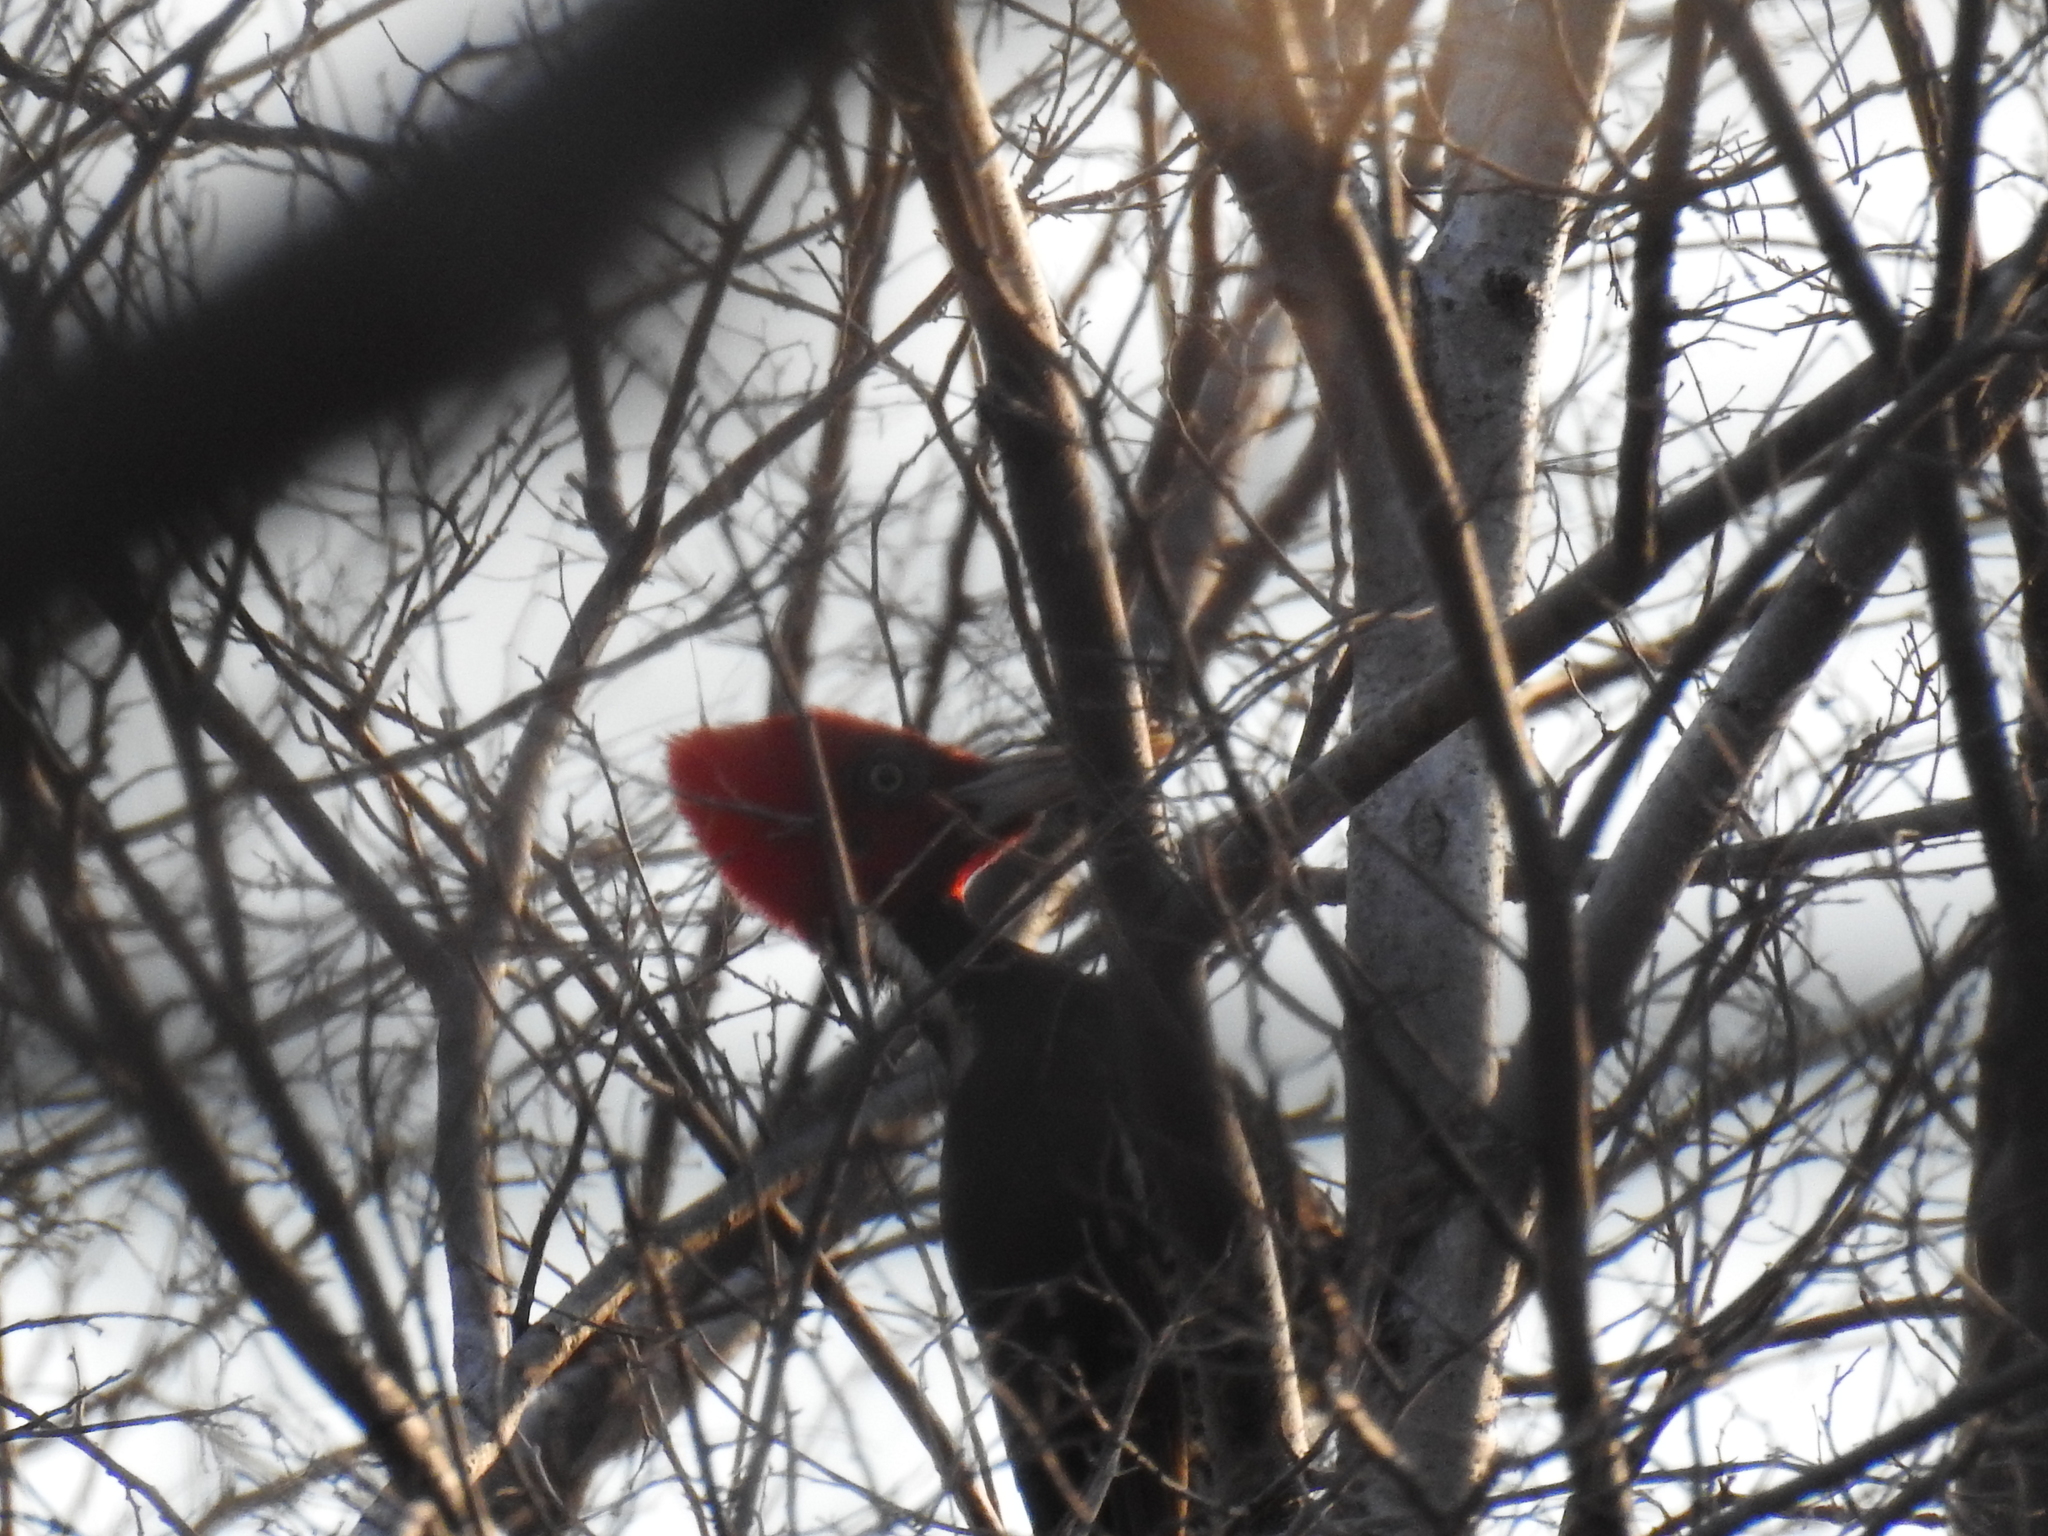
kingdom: Animalia
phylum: Chordata
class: Aves
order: Piciformes
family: Picidae
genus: Campephilus
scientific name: Campephilus guatemalensis
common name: Pale-billed woodpecker
